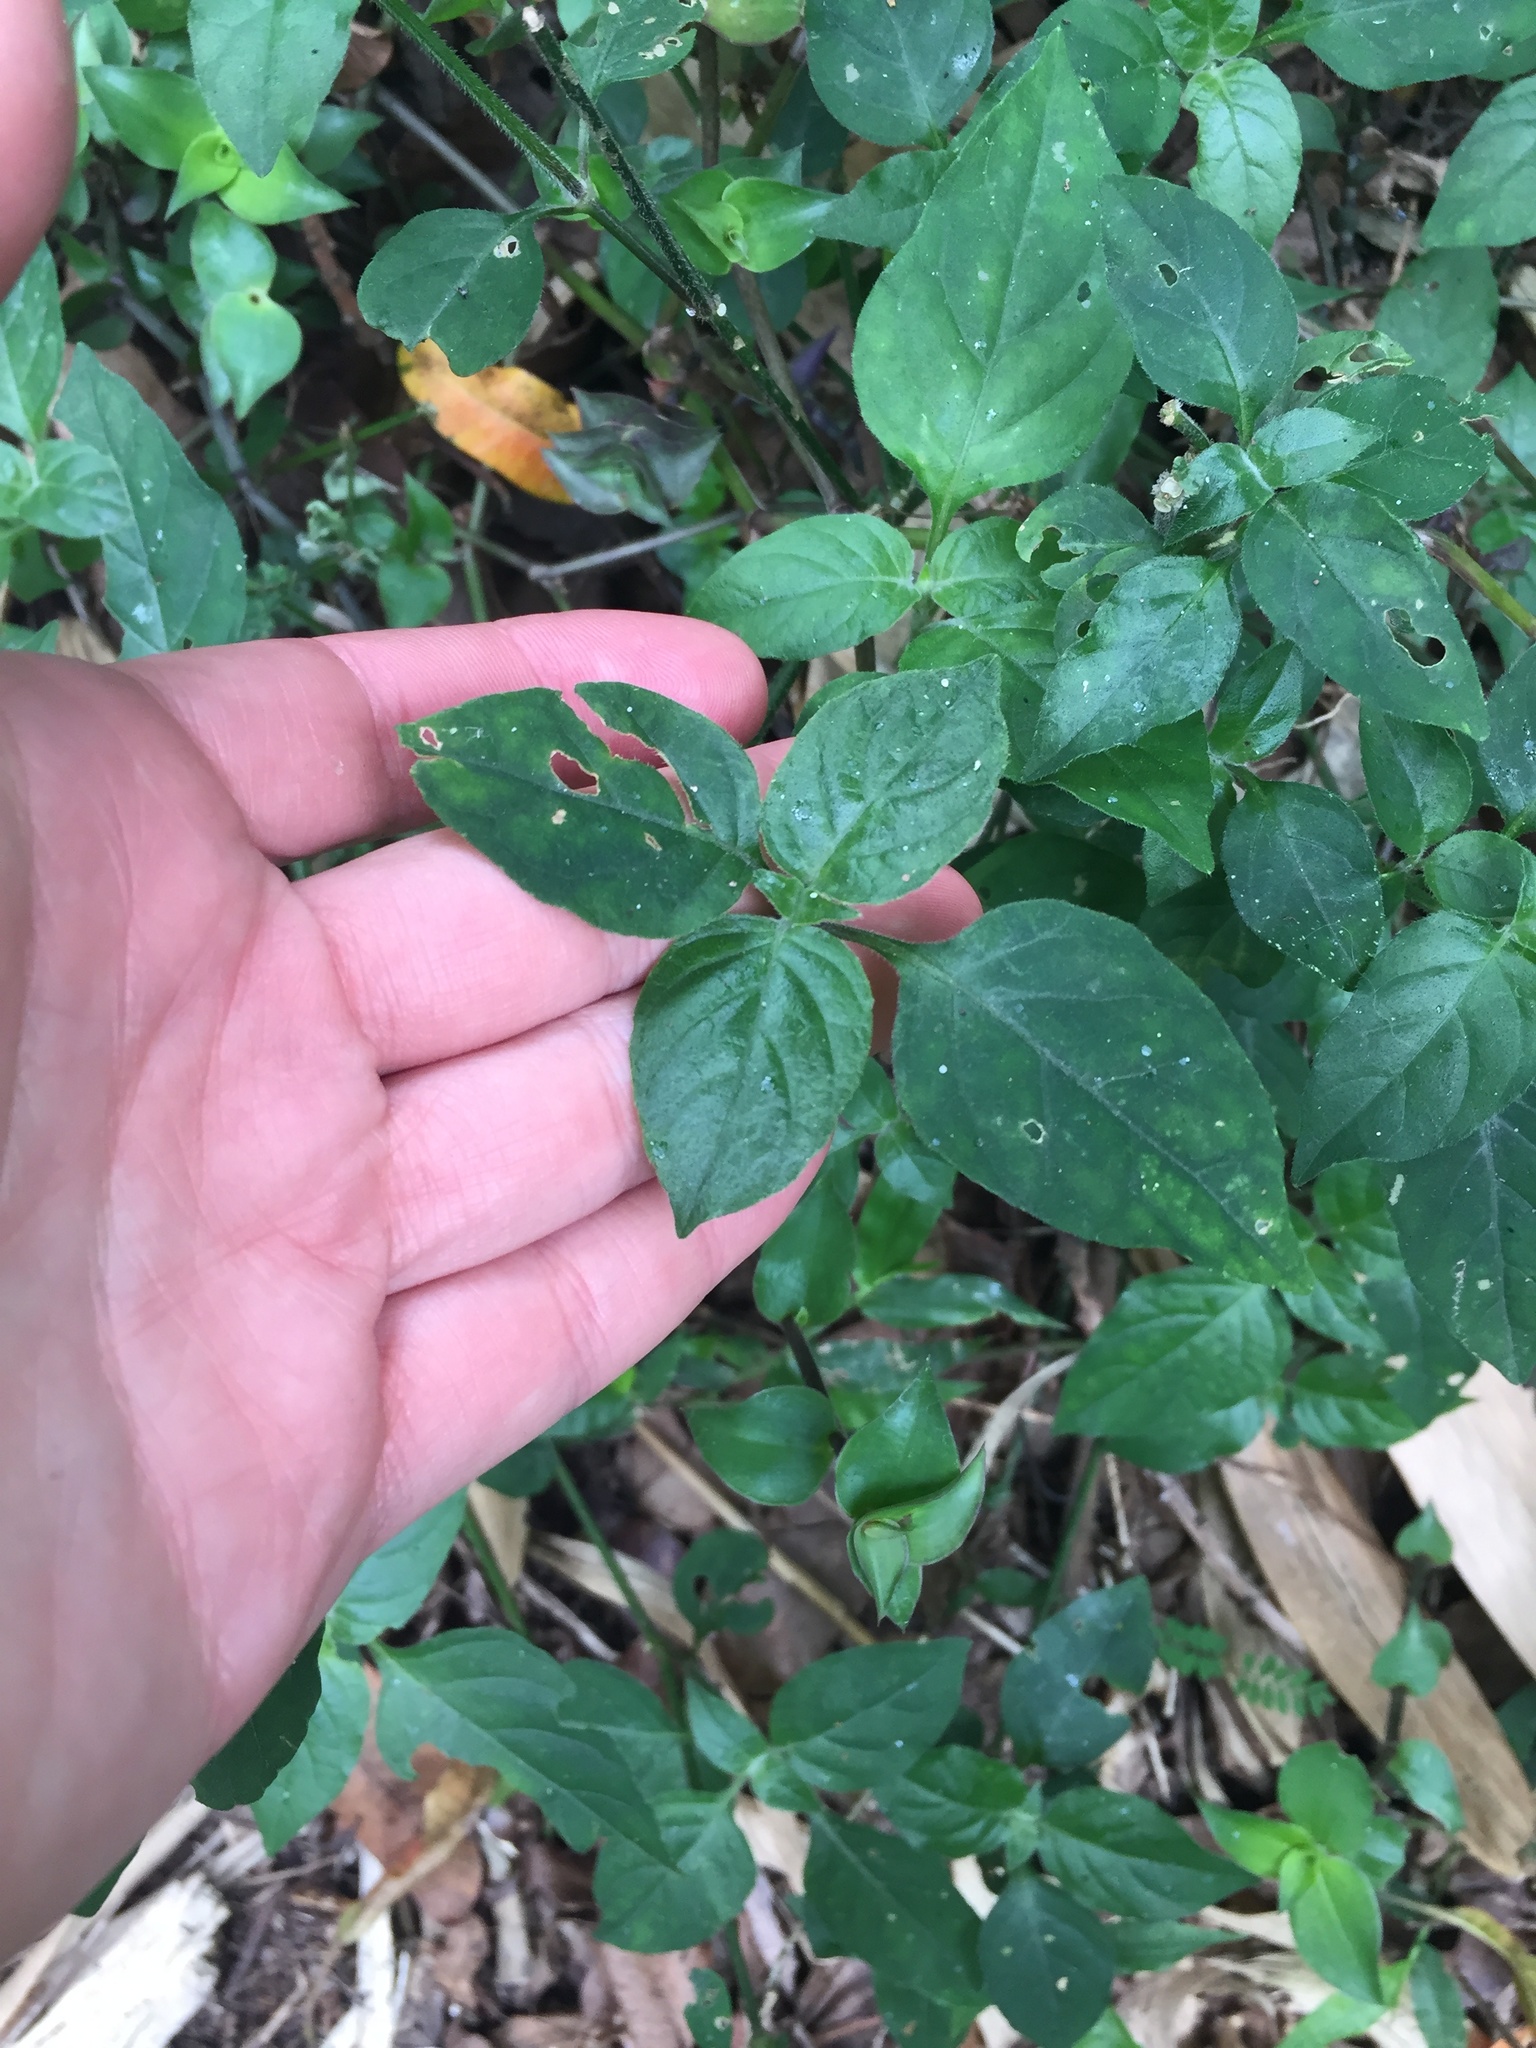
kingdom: Plantae
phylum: Tracheophyta
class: Magnoliopsida
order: Lamiales
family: Acanthaceae
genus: Asystasia
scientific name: Asystasia intrusa
